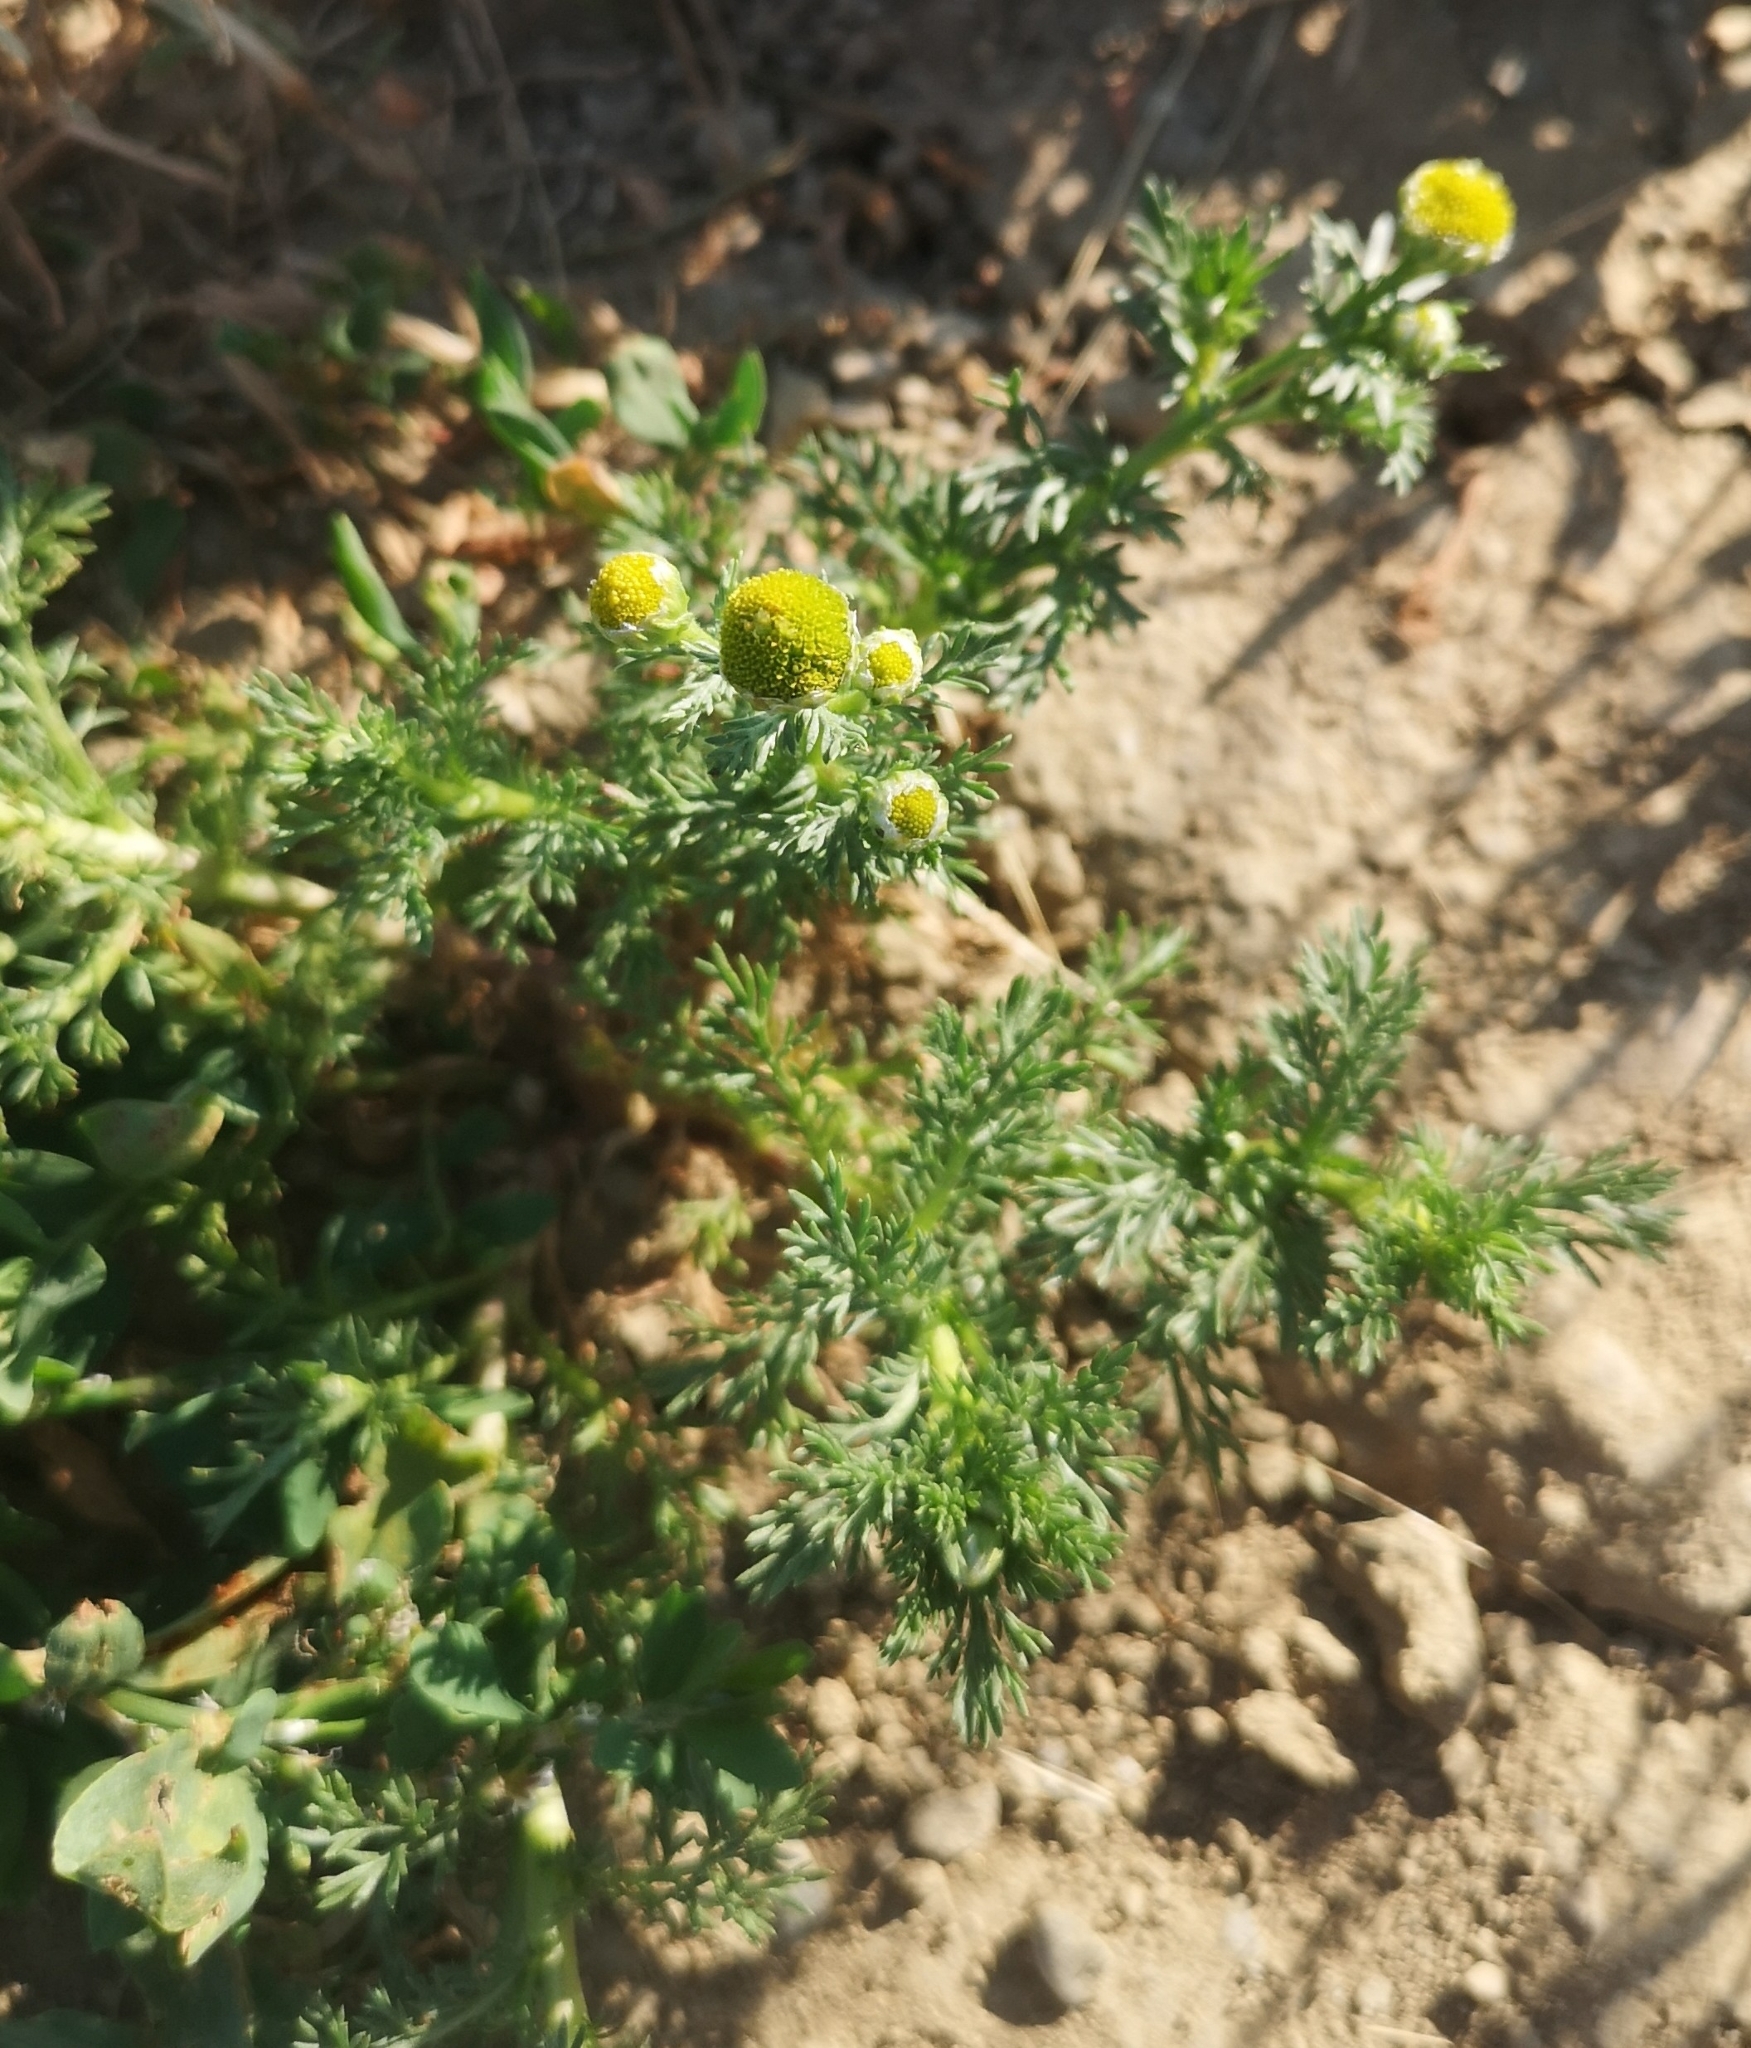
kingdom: Plantae
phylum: Tracheophyta
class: Magnoliopsida
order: Asterales
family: Asteraceae
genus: Matricaria
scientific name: Matricaria discoidea
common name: Disc mayweed
